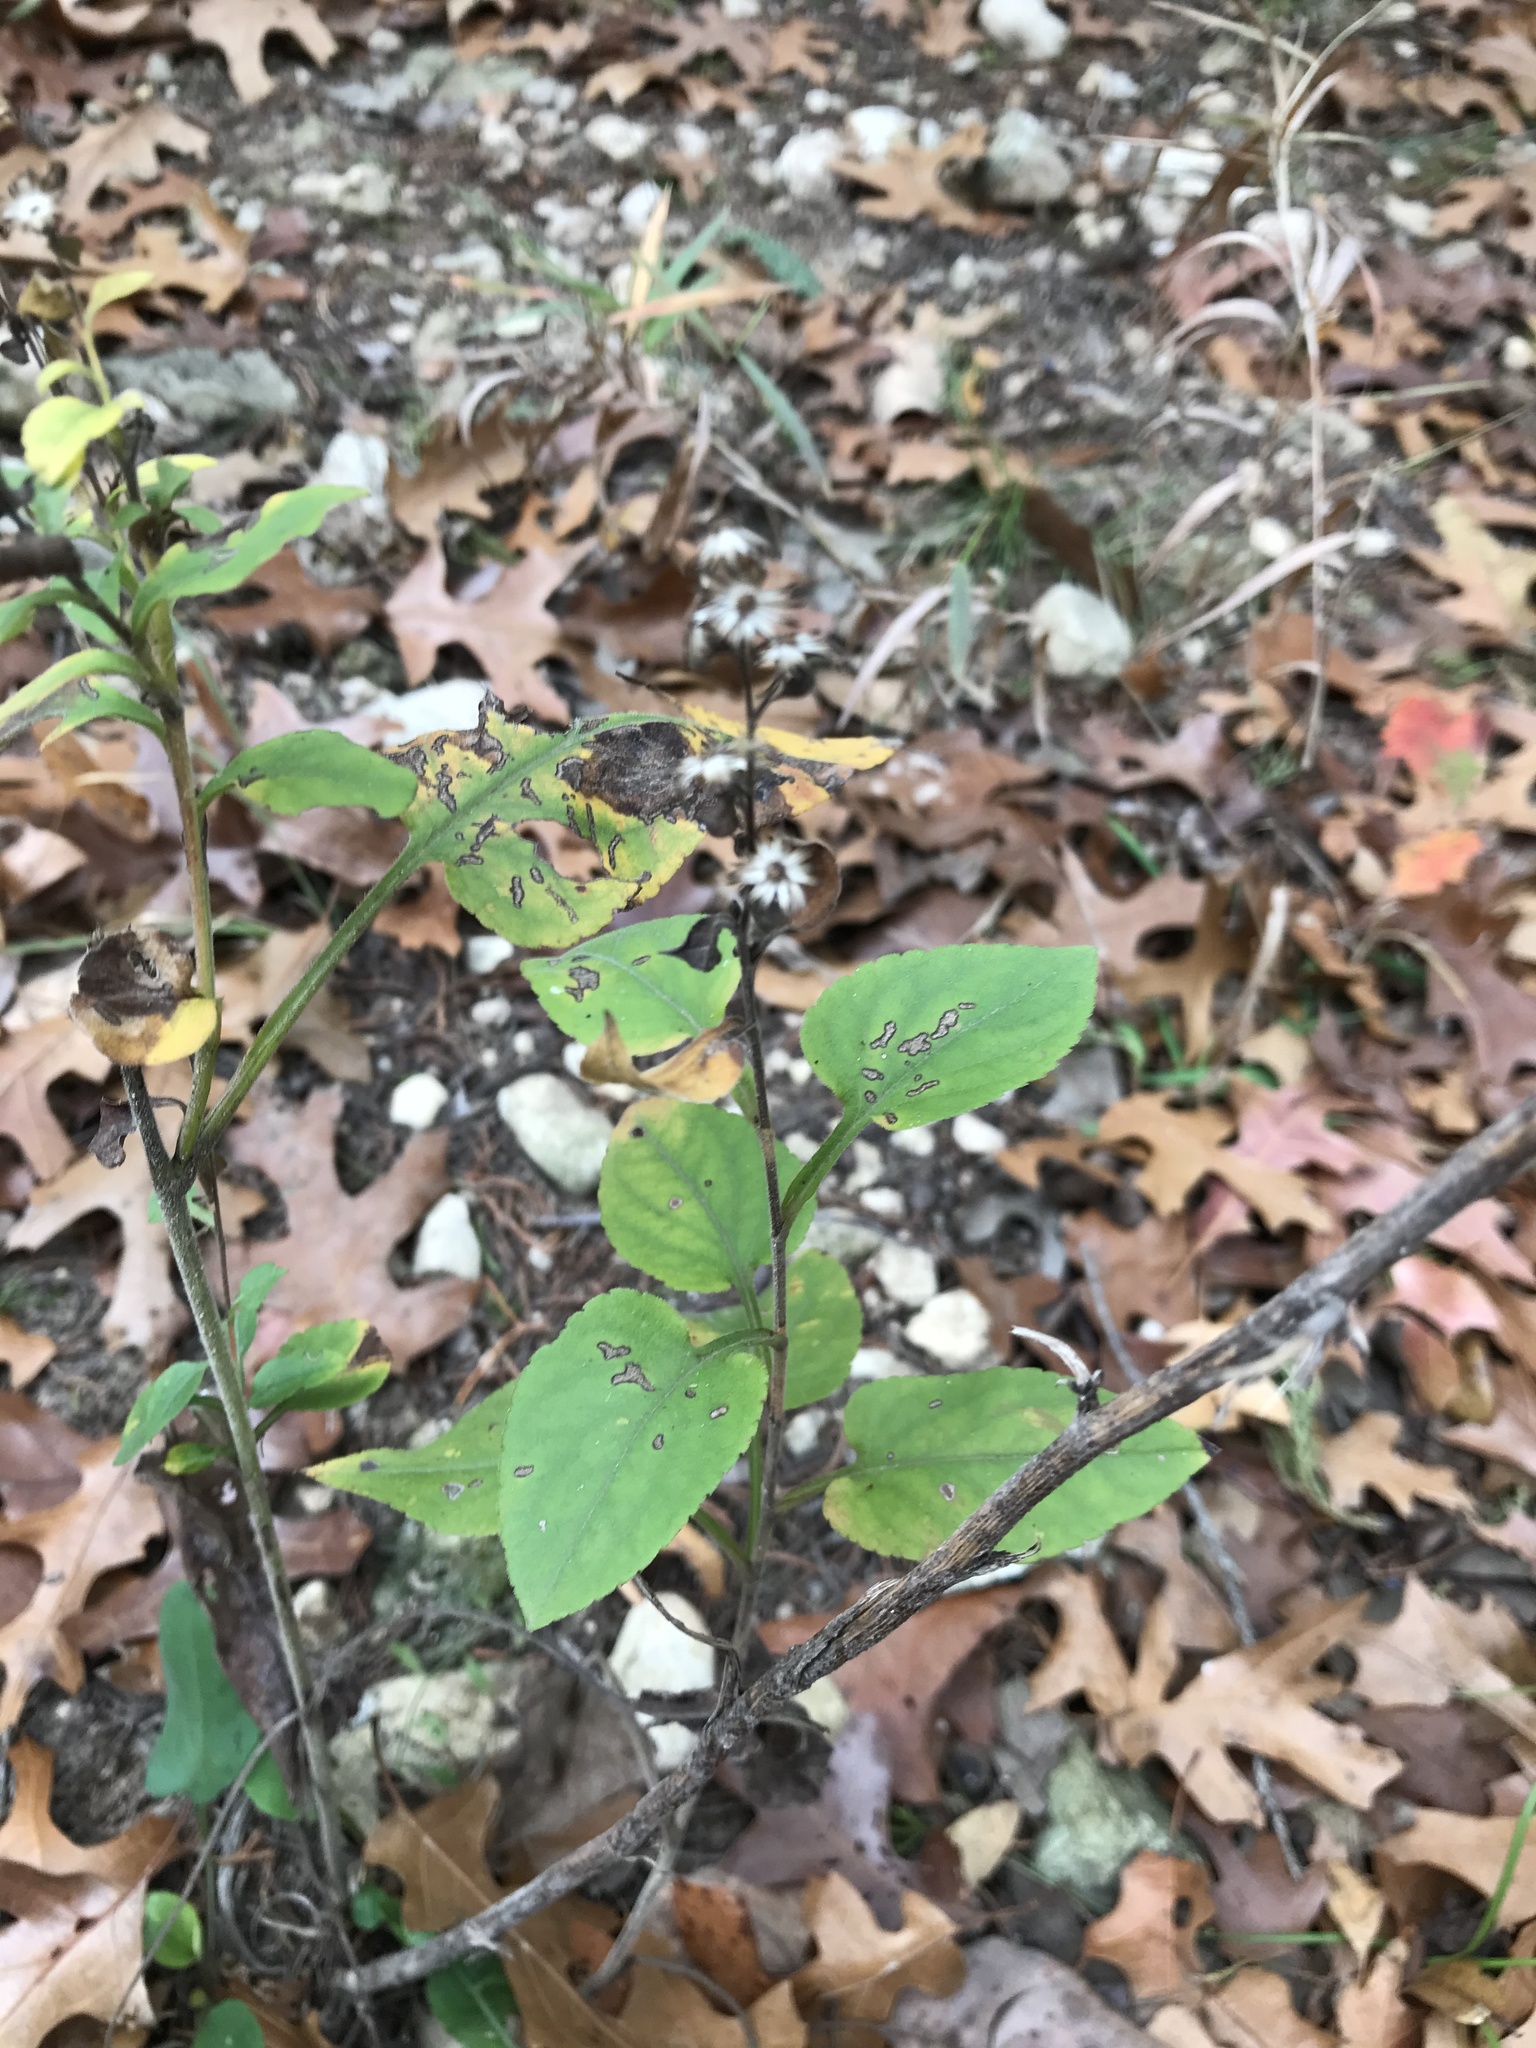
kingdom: Plantae
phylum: Tracheophyta
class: Magnoliopsida
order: Asterales
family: Asteraceae
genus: Symphyotrichum
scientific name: Symphyotrichum drummondii
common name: Drummond's aster
